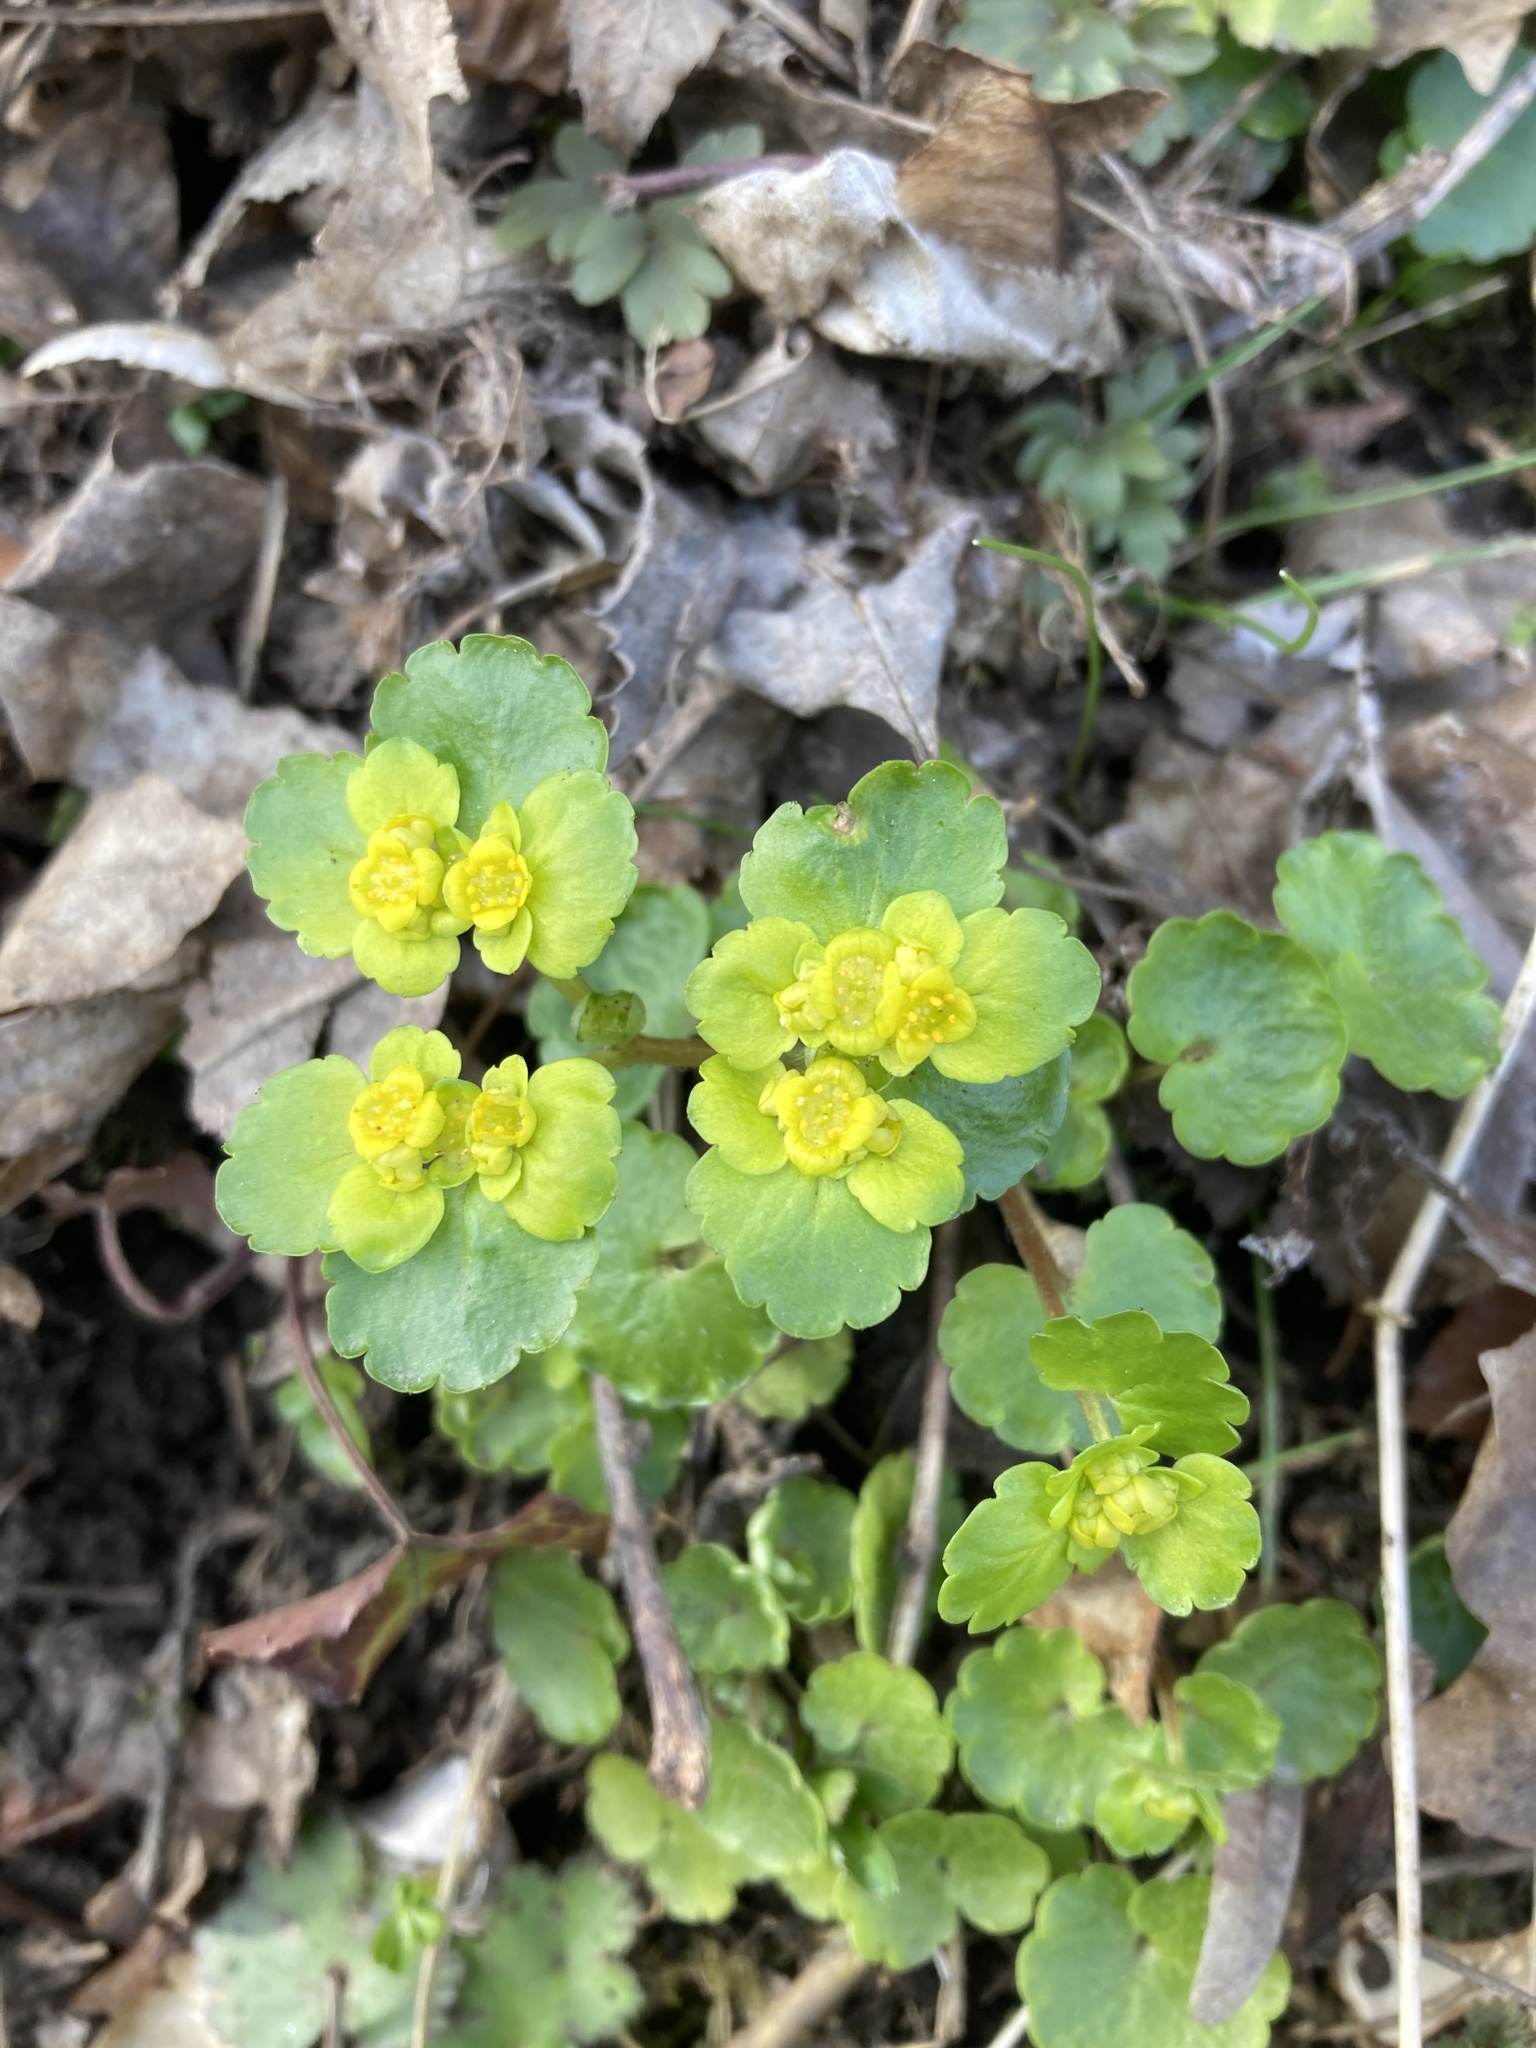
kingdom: Plantae
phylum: Tracheophyta
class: Magnoliopsida
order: Saxifragales
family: Saxifragaceae
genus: Chrysosplenium
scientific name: Chrysosplenium alternifolium
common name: Alternate-leaved golden-saxifrage
